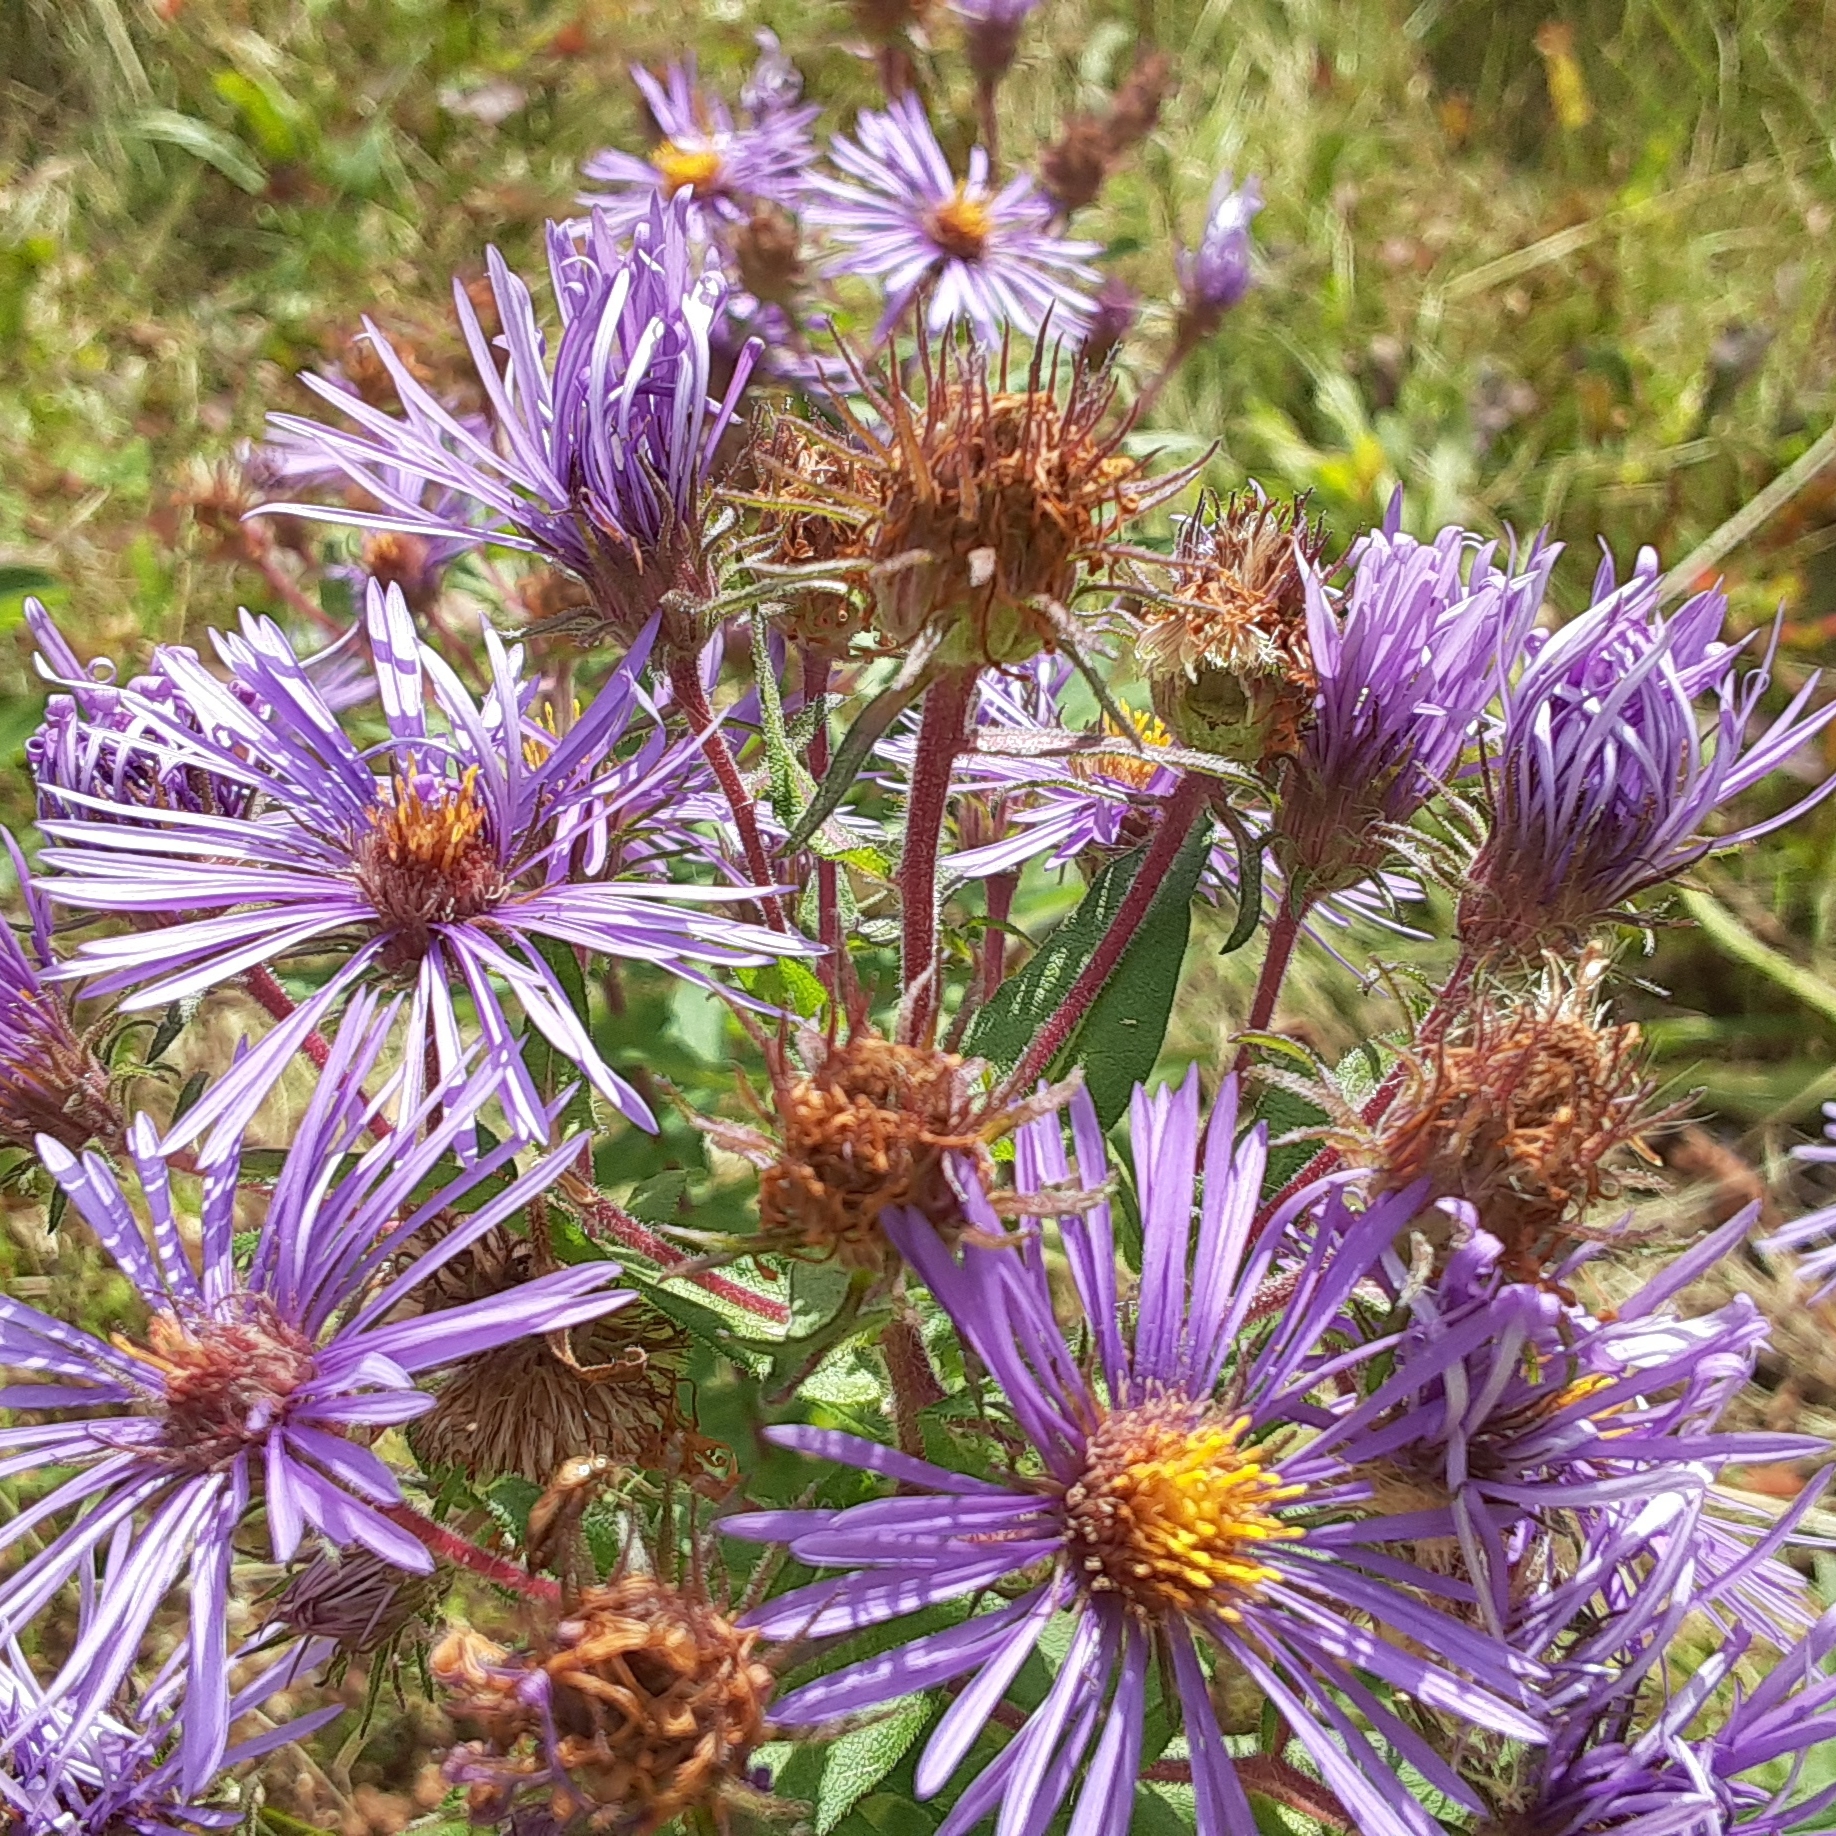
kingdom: Plantae
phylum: Tracheophyta
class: Magnoliopsida
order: Asterales
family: Asteraceae
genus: Symphyotrichum
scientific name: Symphyotrichum novae-angliae
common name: Michaelmas daisy
